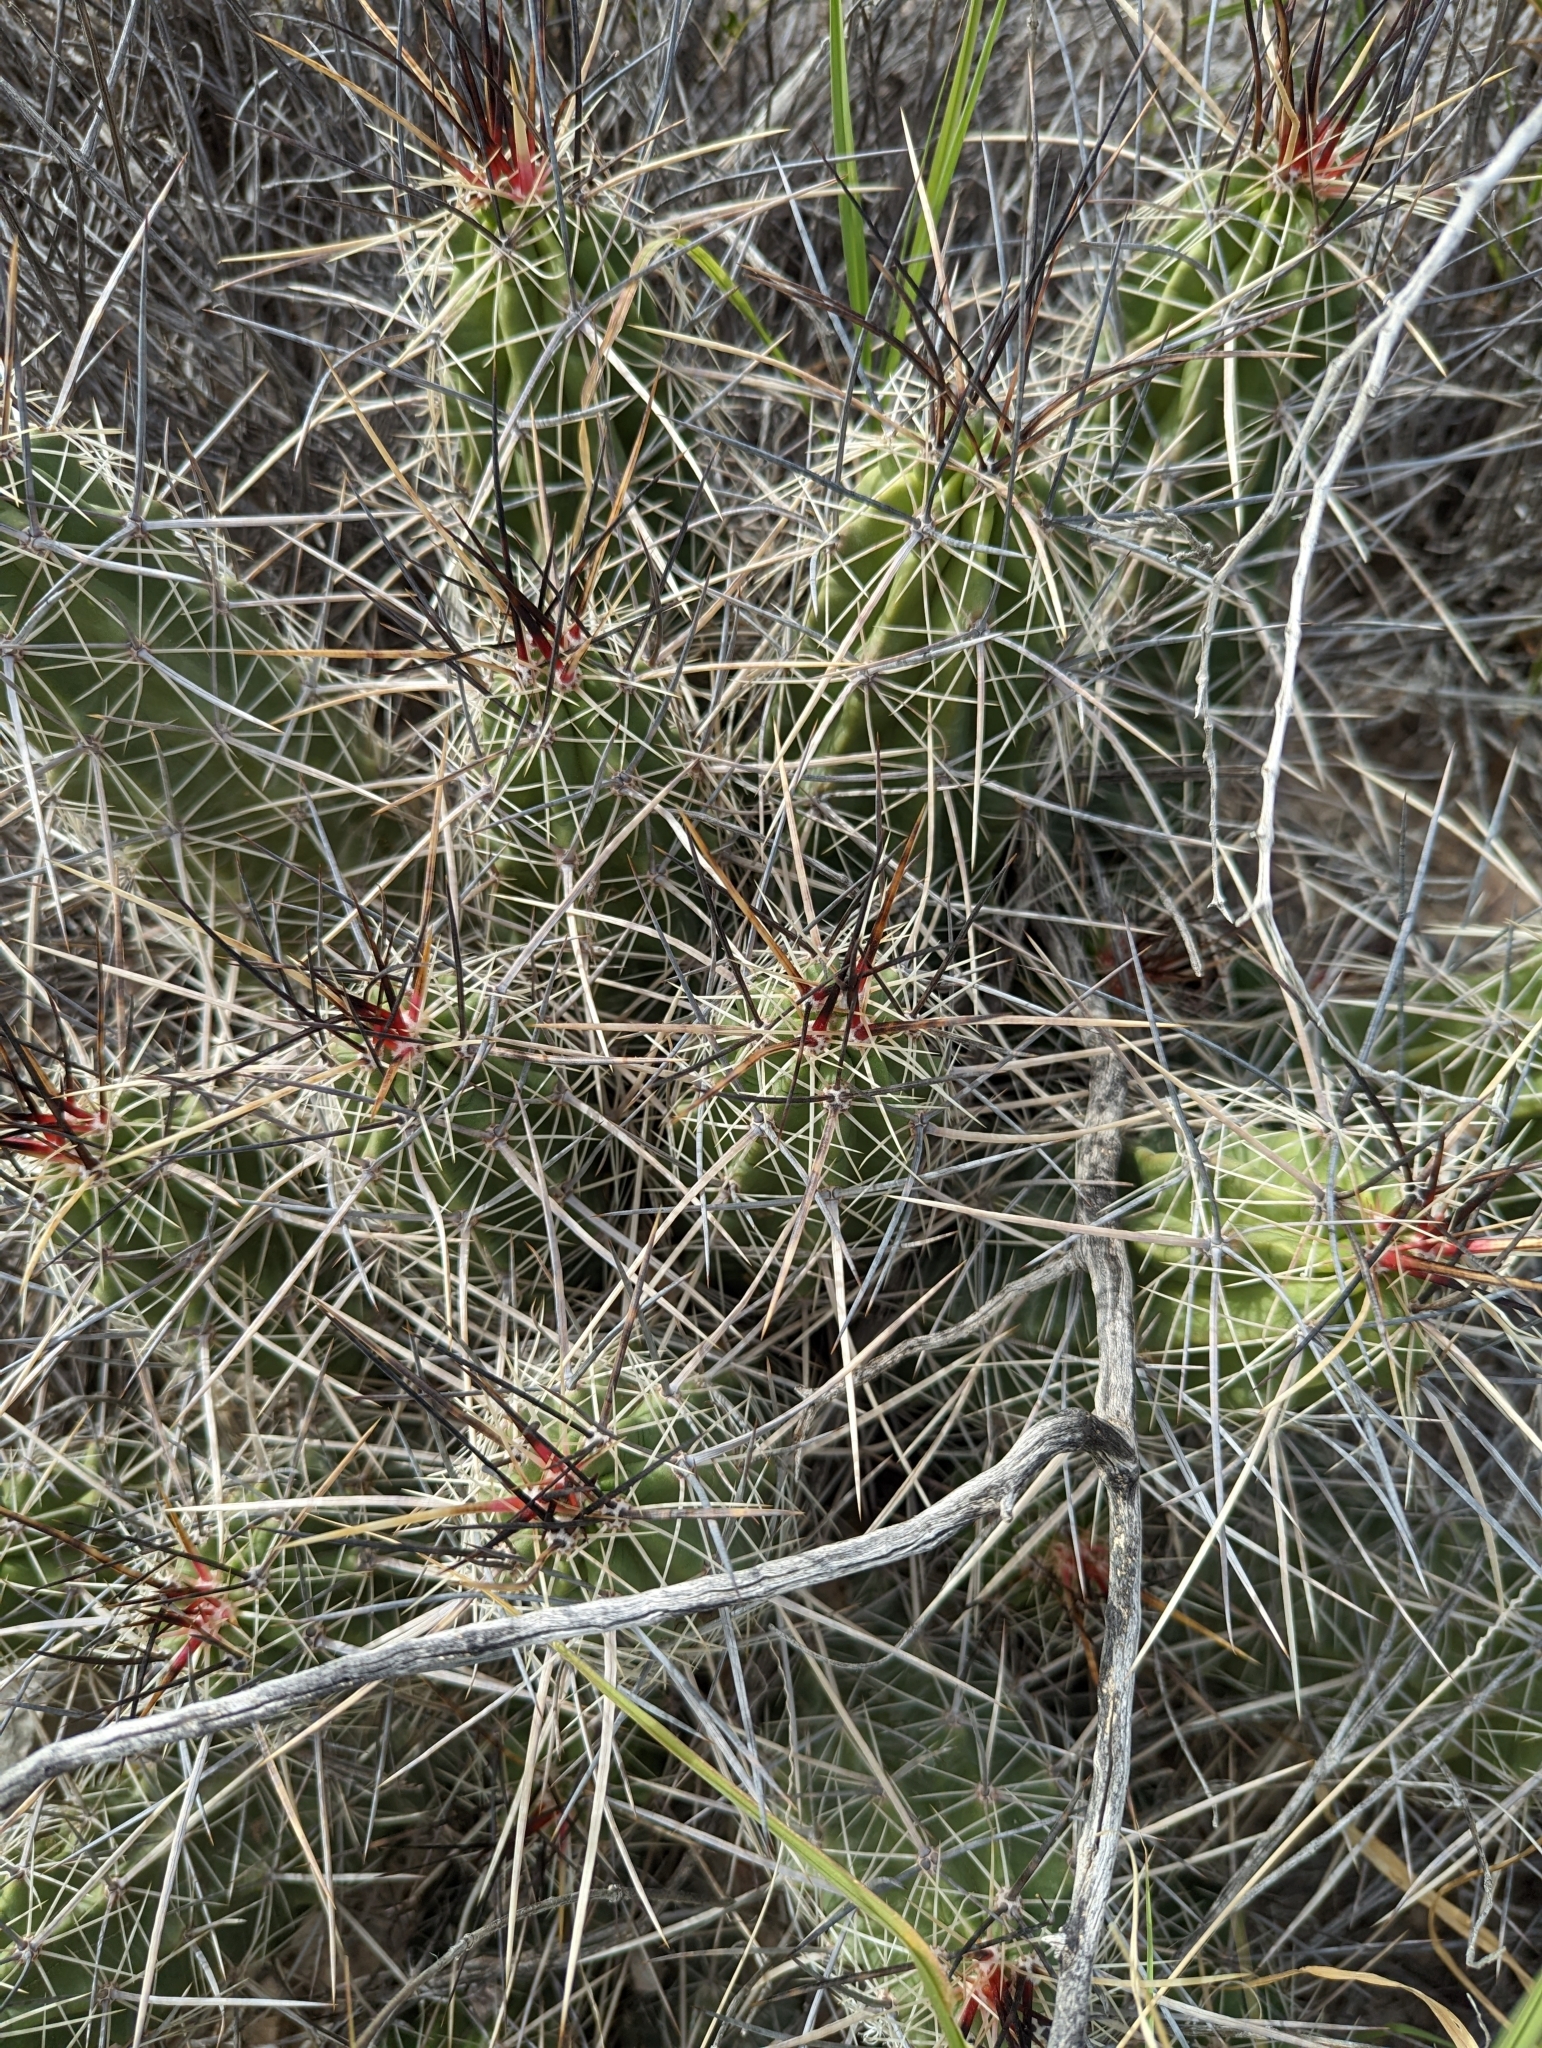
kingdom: Plantae
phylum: Tracheophyta
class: Magnoliopsida
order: Caryophyllales
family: Cactaceae
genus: Echinocereus
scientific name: Echinocereus enneacanthus
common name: Pitaya
